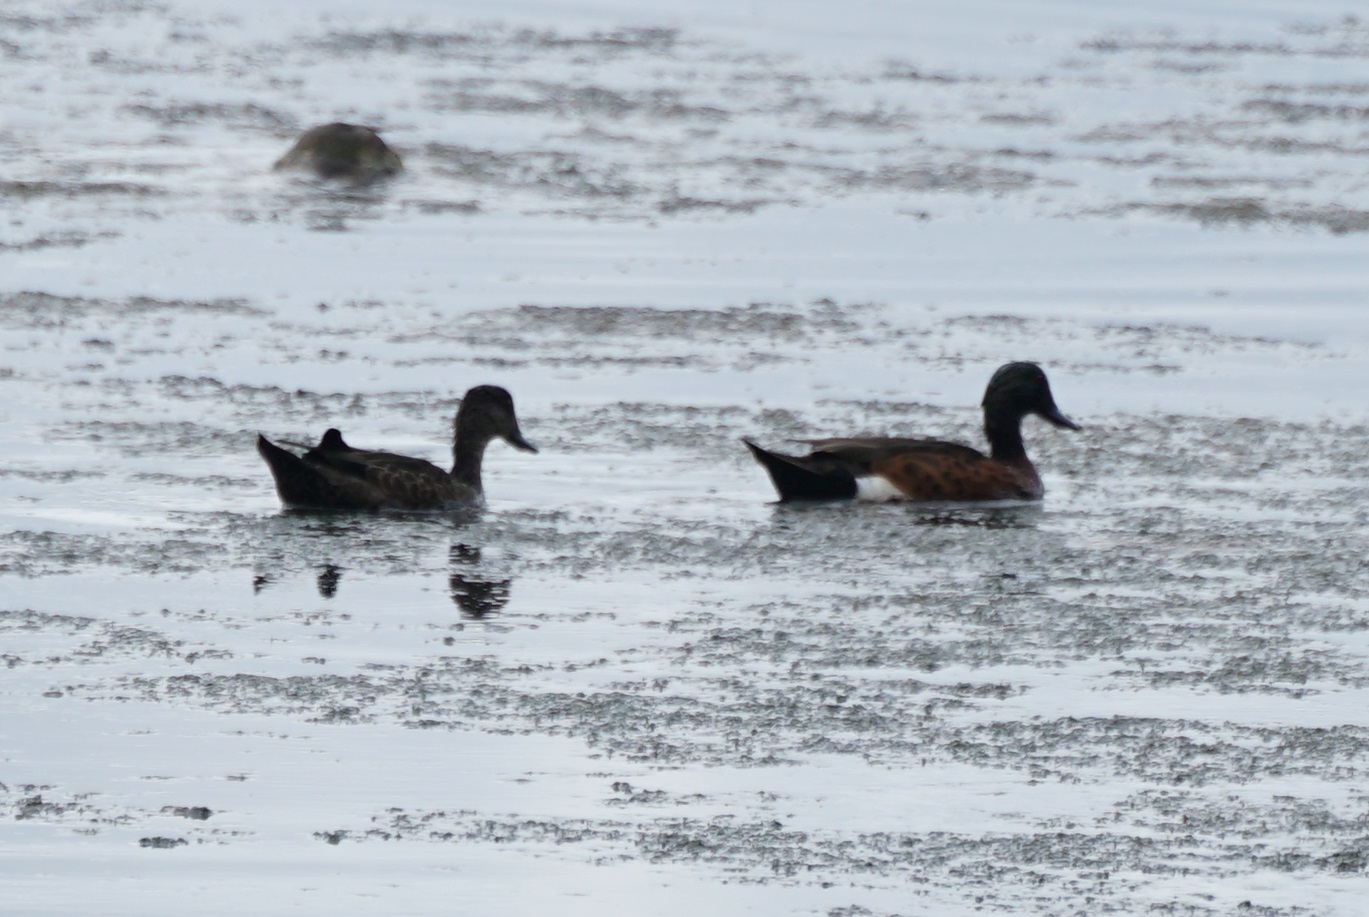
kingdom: Animalia
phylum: Chordata
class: Aves
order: Anseriformes
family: Anatidae
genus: Anas
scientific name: Anas castanea
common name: Chestnut teal
